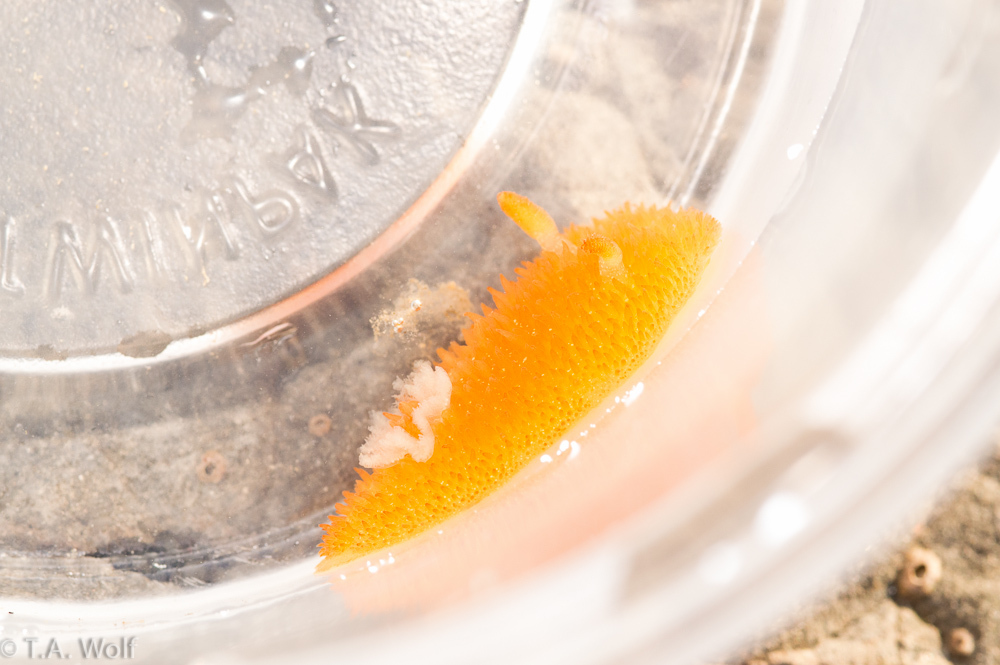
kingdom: Animalia
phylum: Mollusca
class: Gastropoda
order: Nudibranchia
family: Onchidorididae
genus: Acanthodoris
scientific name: Acanthodoris lutea
